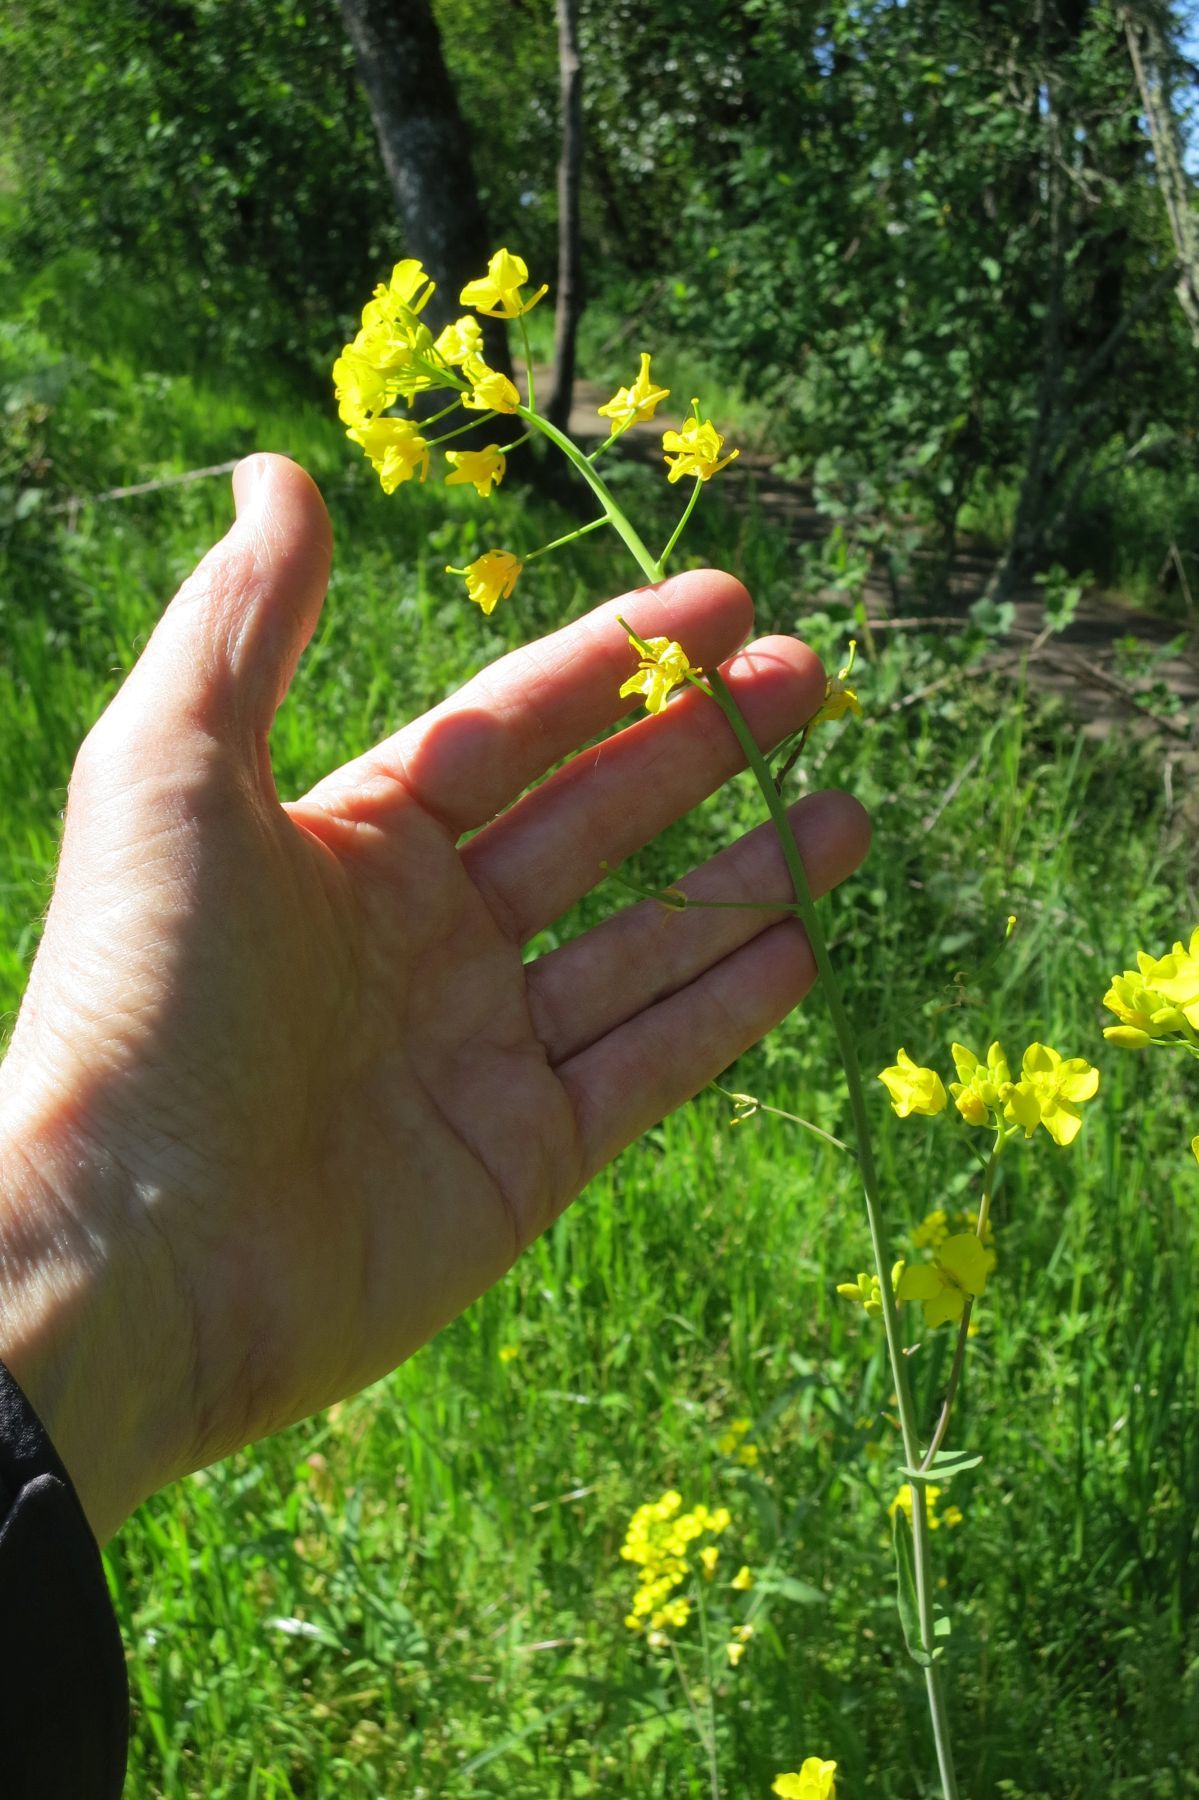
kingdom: Plantae
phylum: Tracheophyta
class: Magnoliopsida
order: Brassicales
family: Brassicaceae
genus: Brassica
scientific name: Brassica rapa
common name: Field mustard
